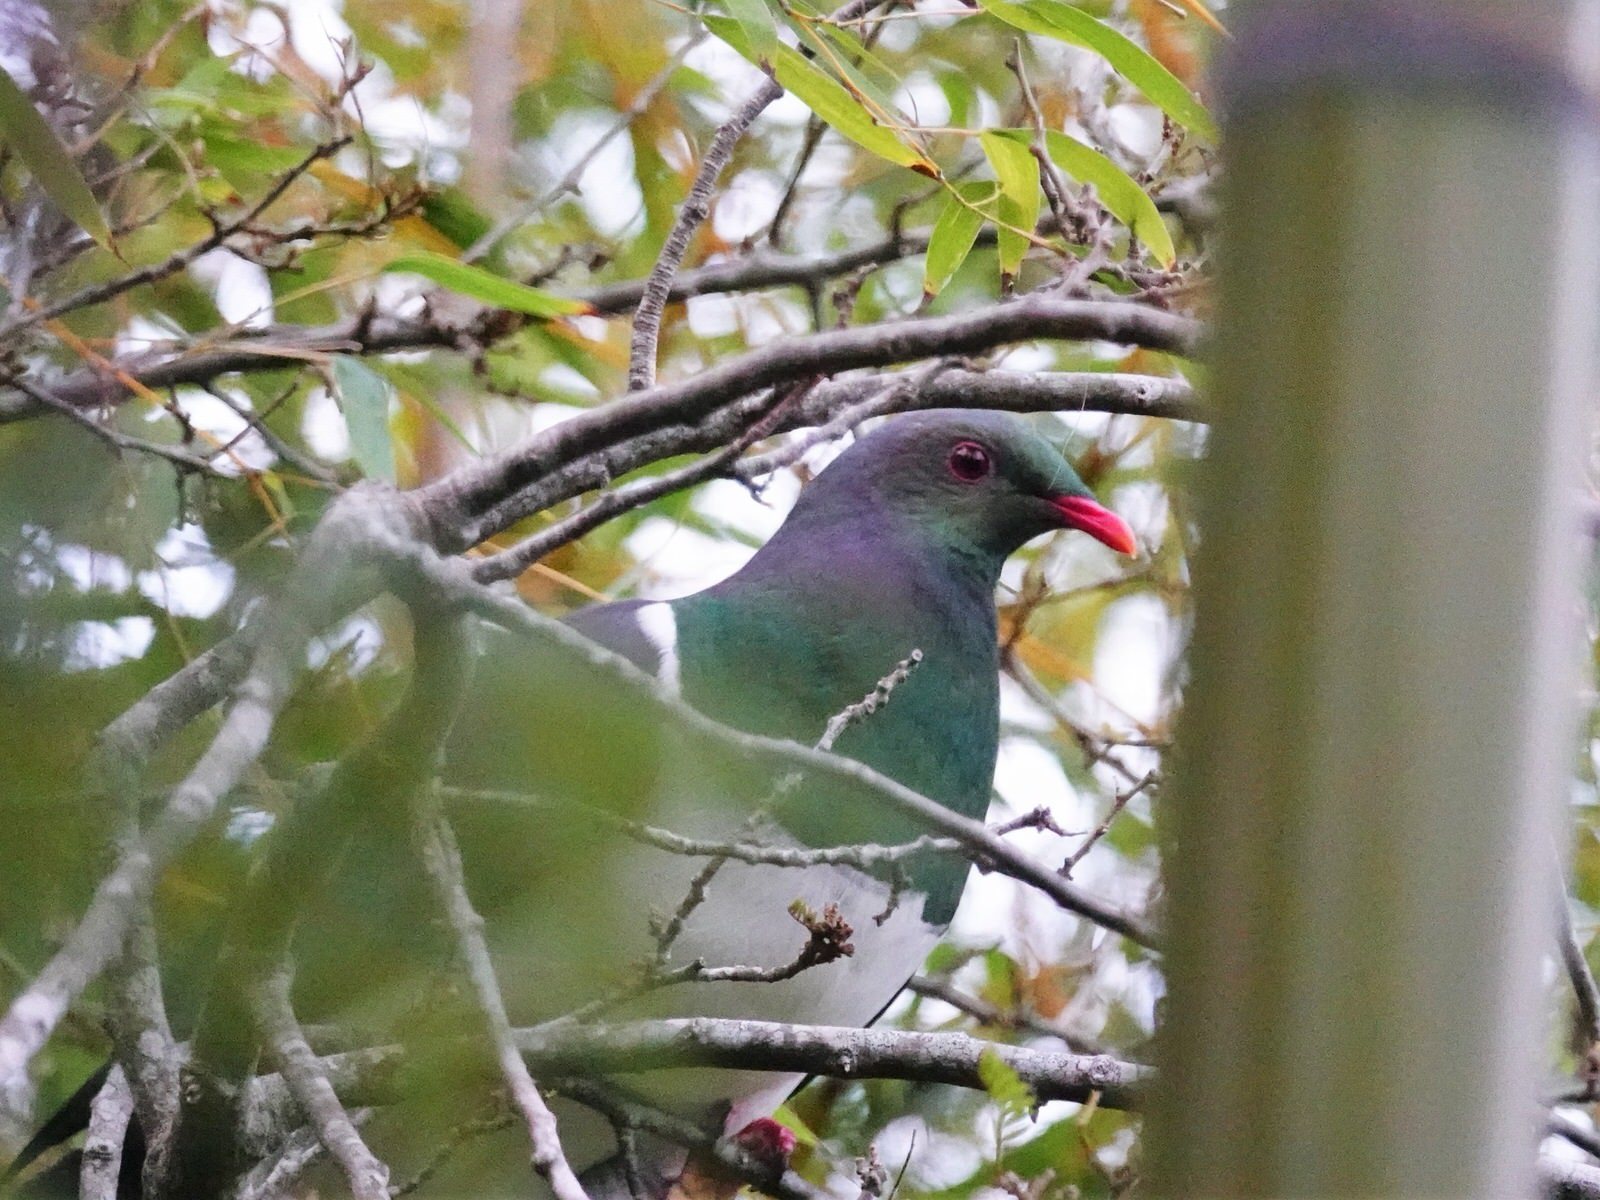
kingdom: Animalia
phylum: Chordata
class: Aves
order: Columbiformes
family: Columbidae
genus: Hemiphaga
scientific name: Hemiphaga novaeseelandiae
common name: New zealand pigeon
